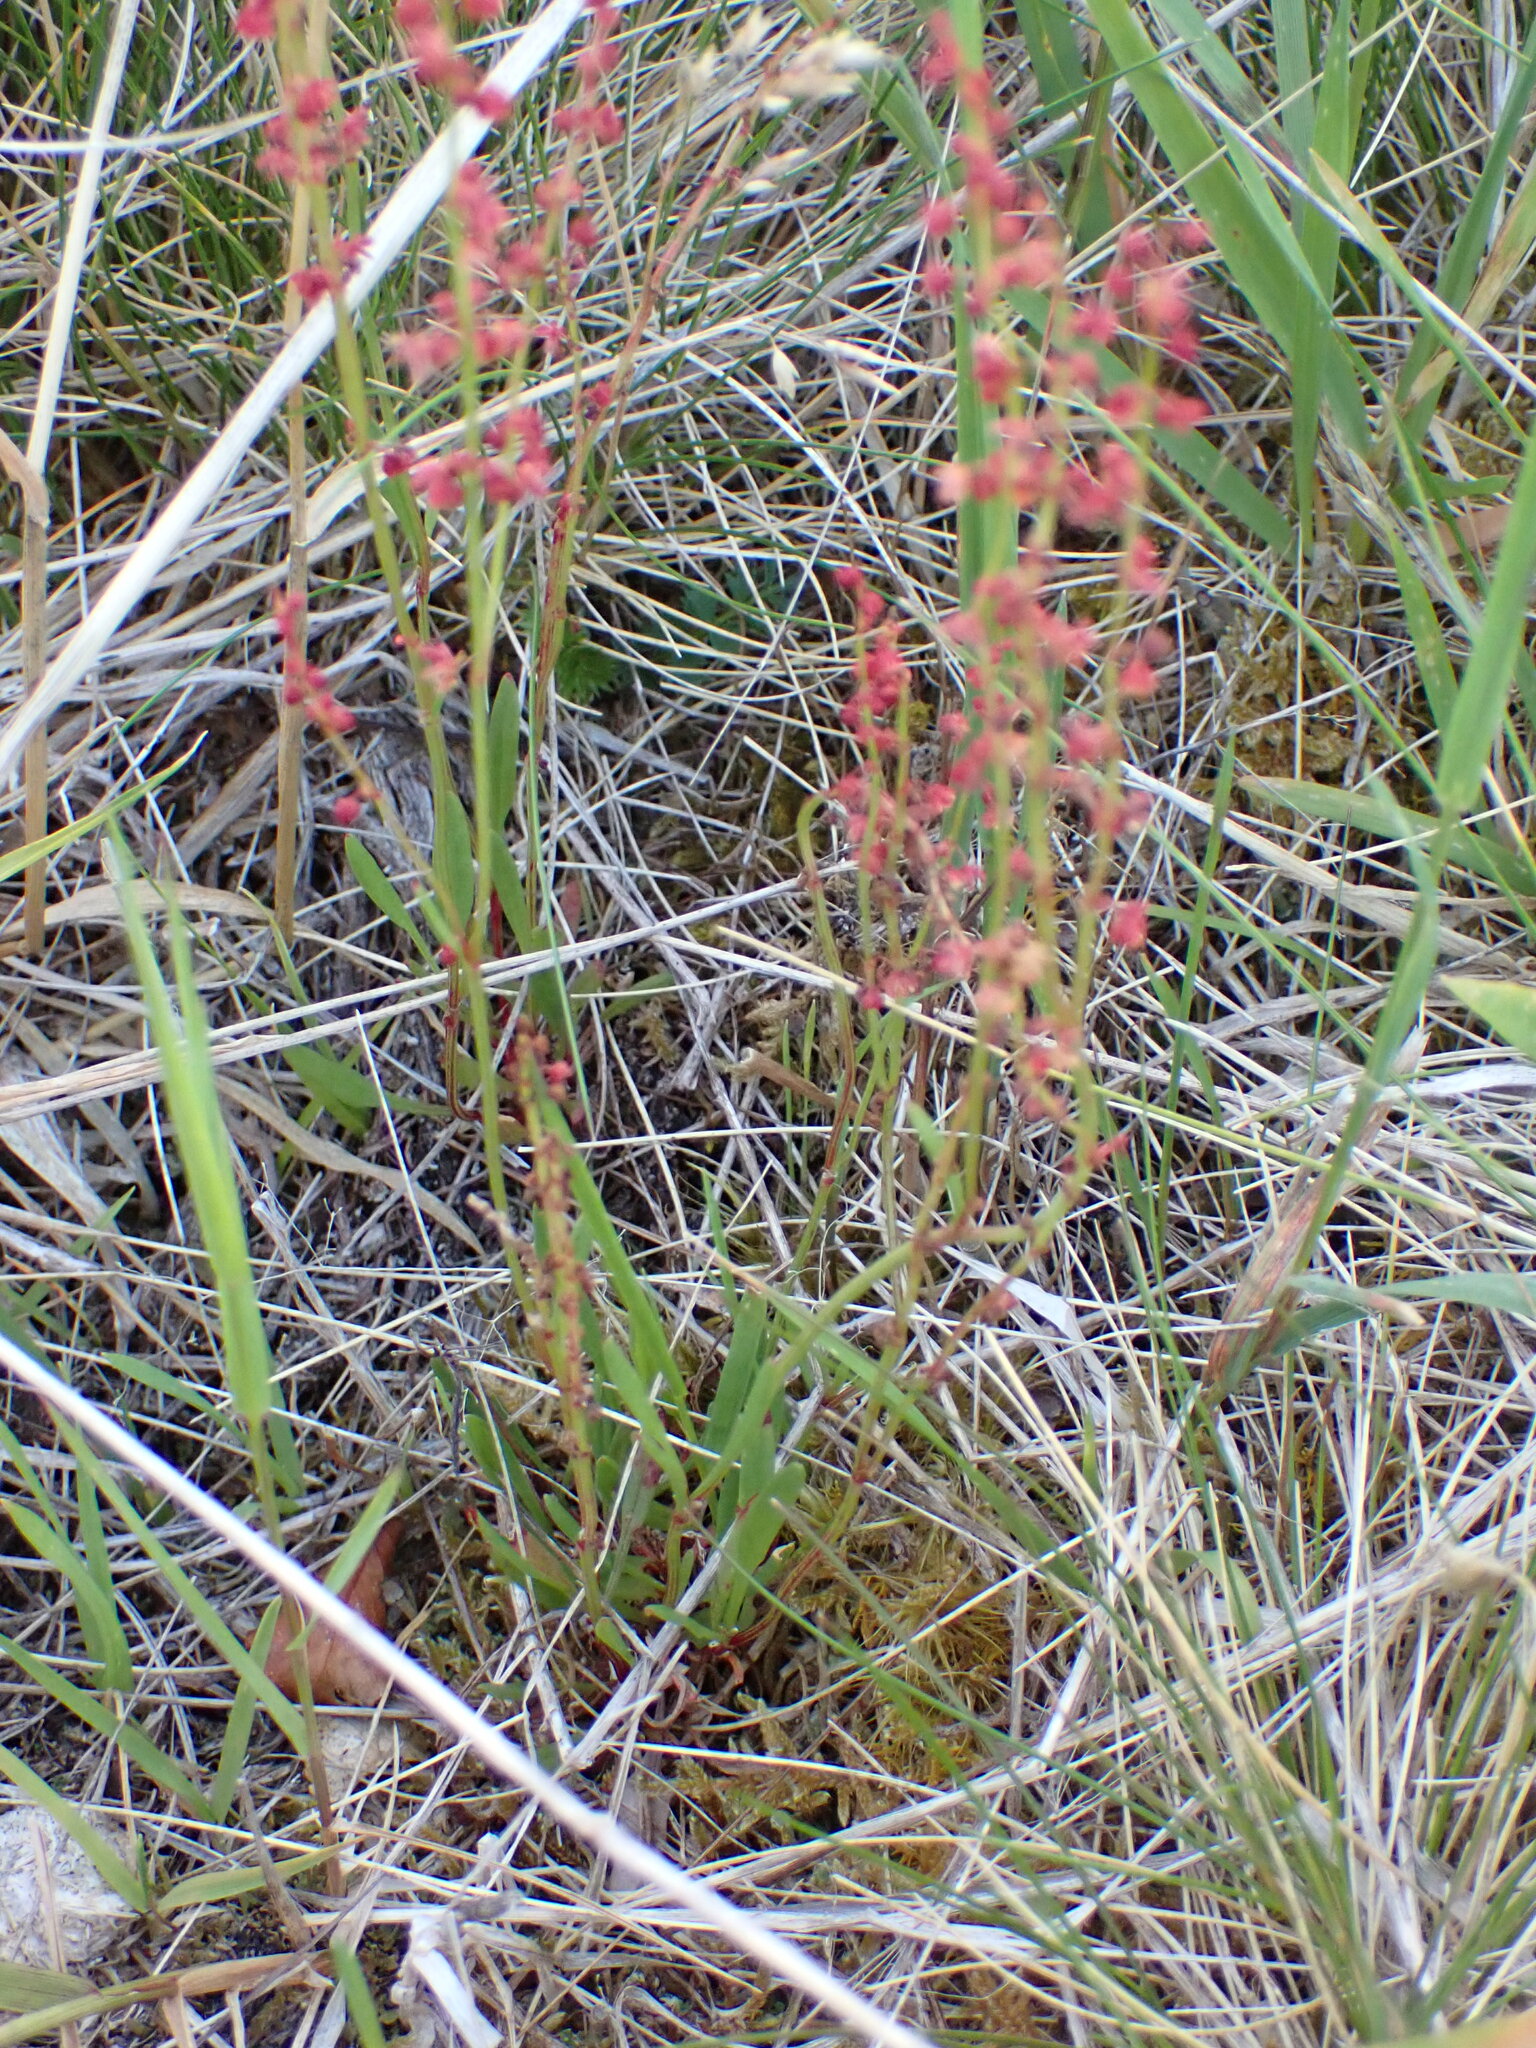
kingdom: Plantae
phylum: Tracheophyta
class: Magnoliopsida
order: Caryophyllales
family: Polygonaceae
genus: Rumex
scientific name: Rumex acetosella
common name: Common sheep sorrel
